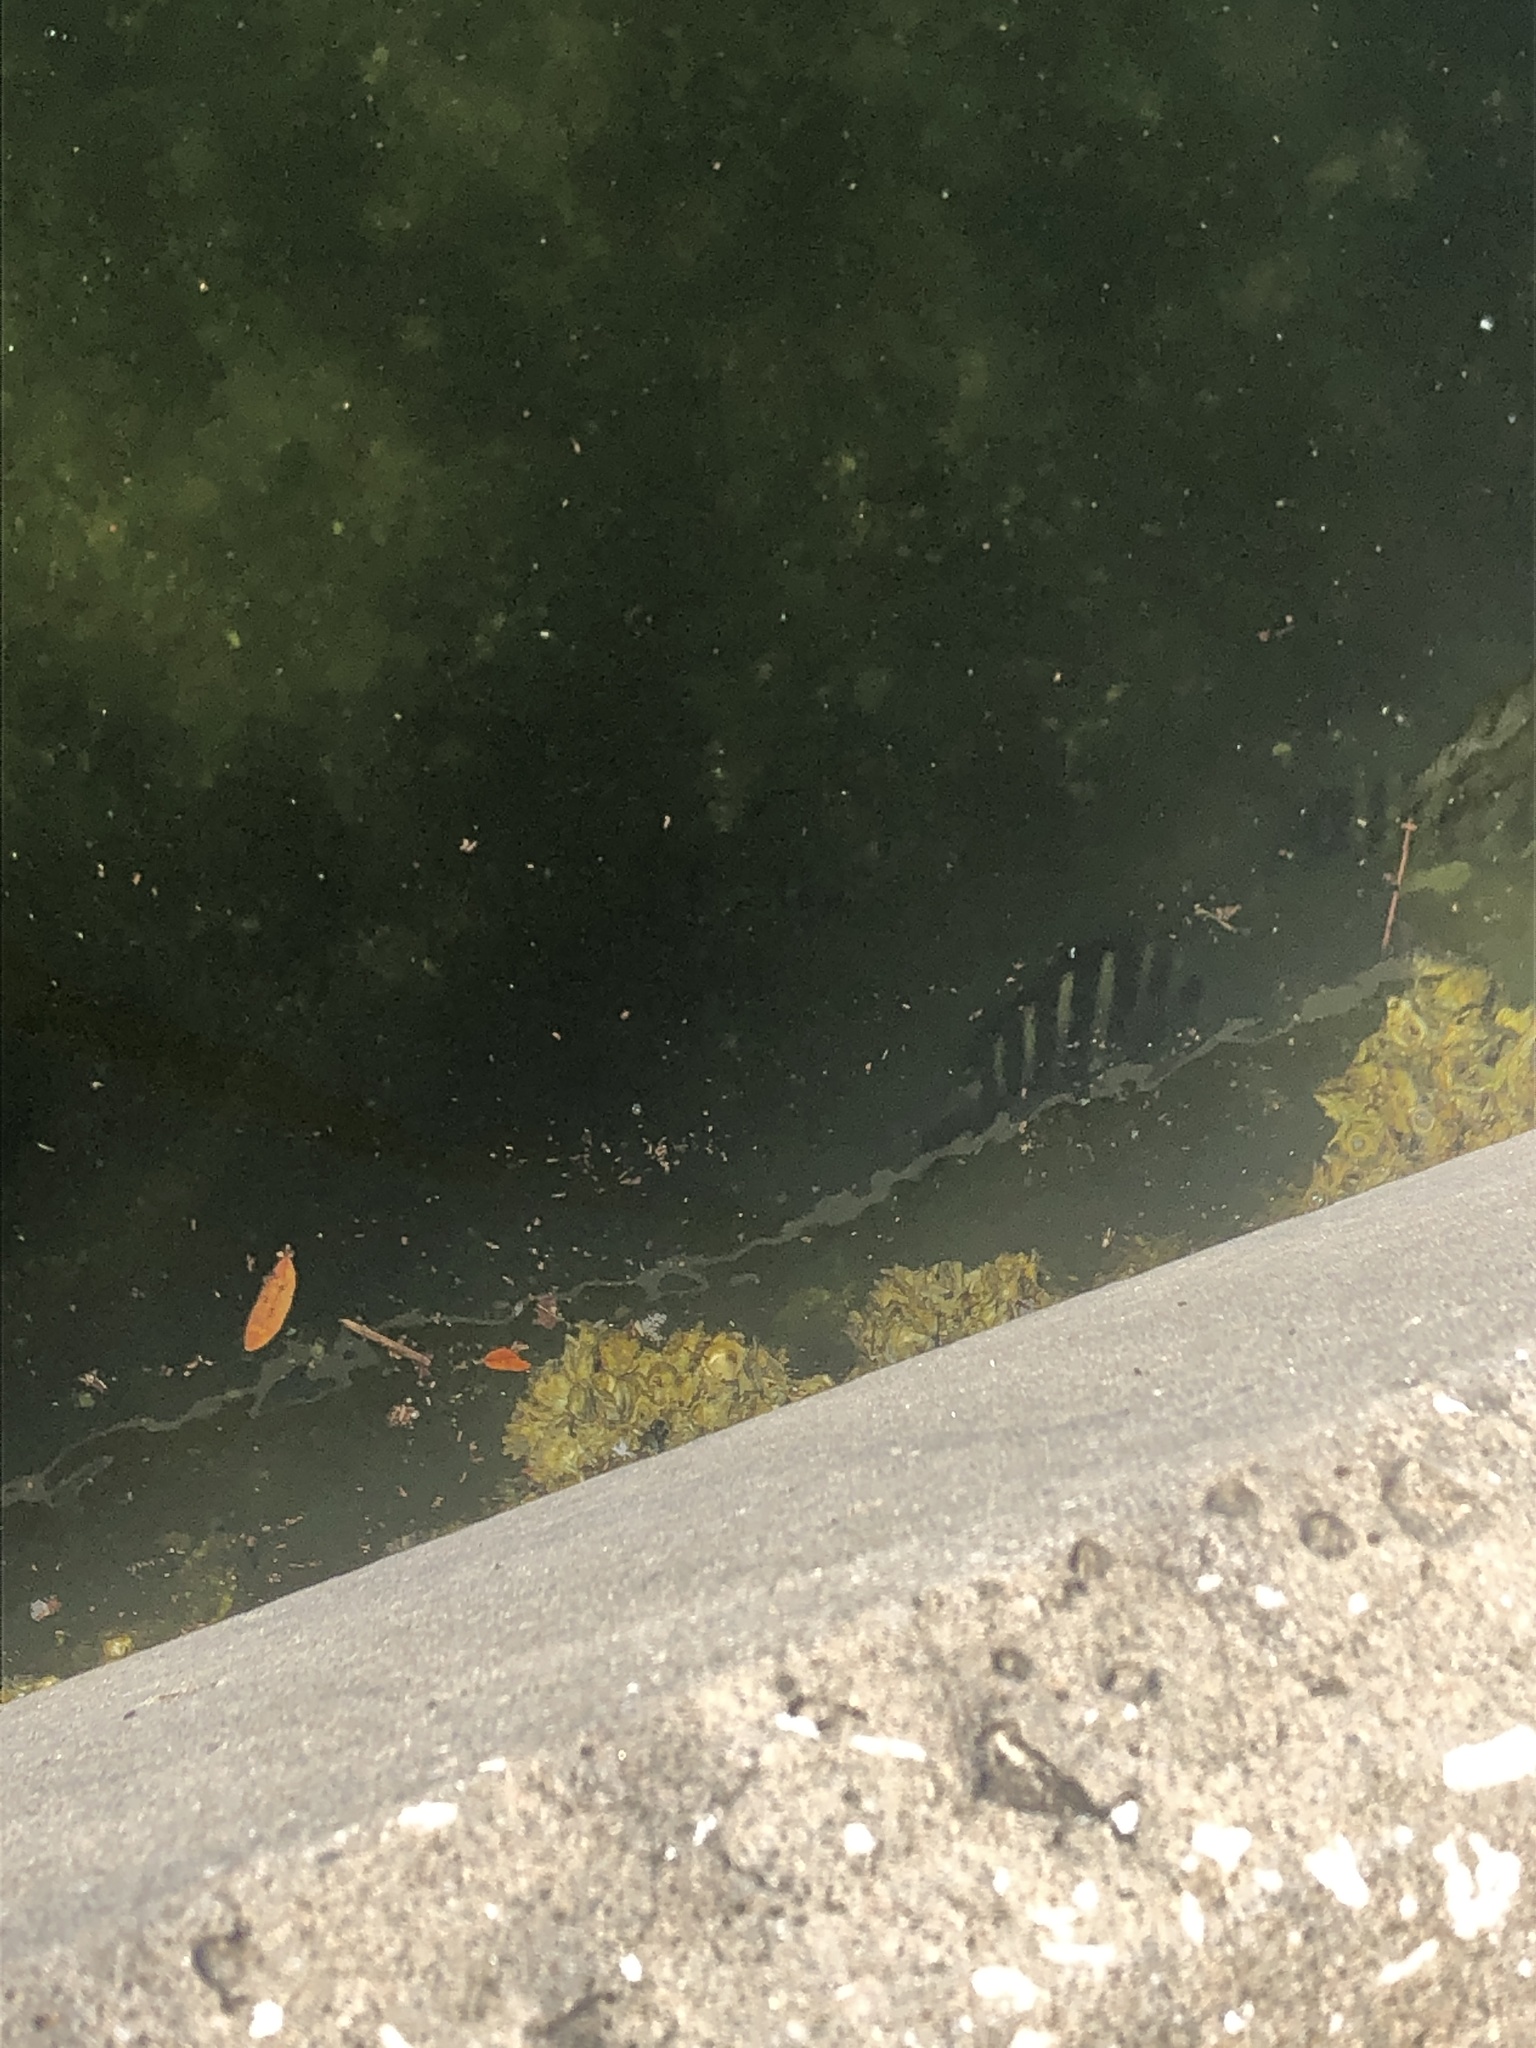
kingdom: Animalia
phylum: Chordata
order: Perciformes
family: Sparidae
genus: Archosargus
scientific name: Archosargus probatocephalus
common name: Sheepshead
